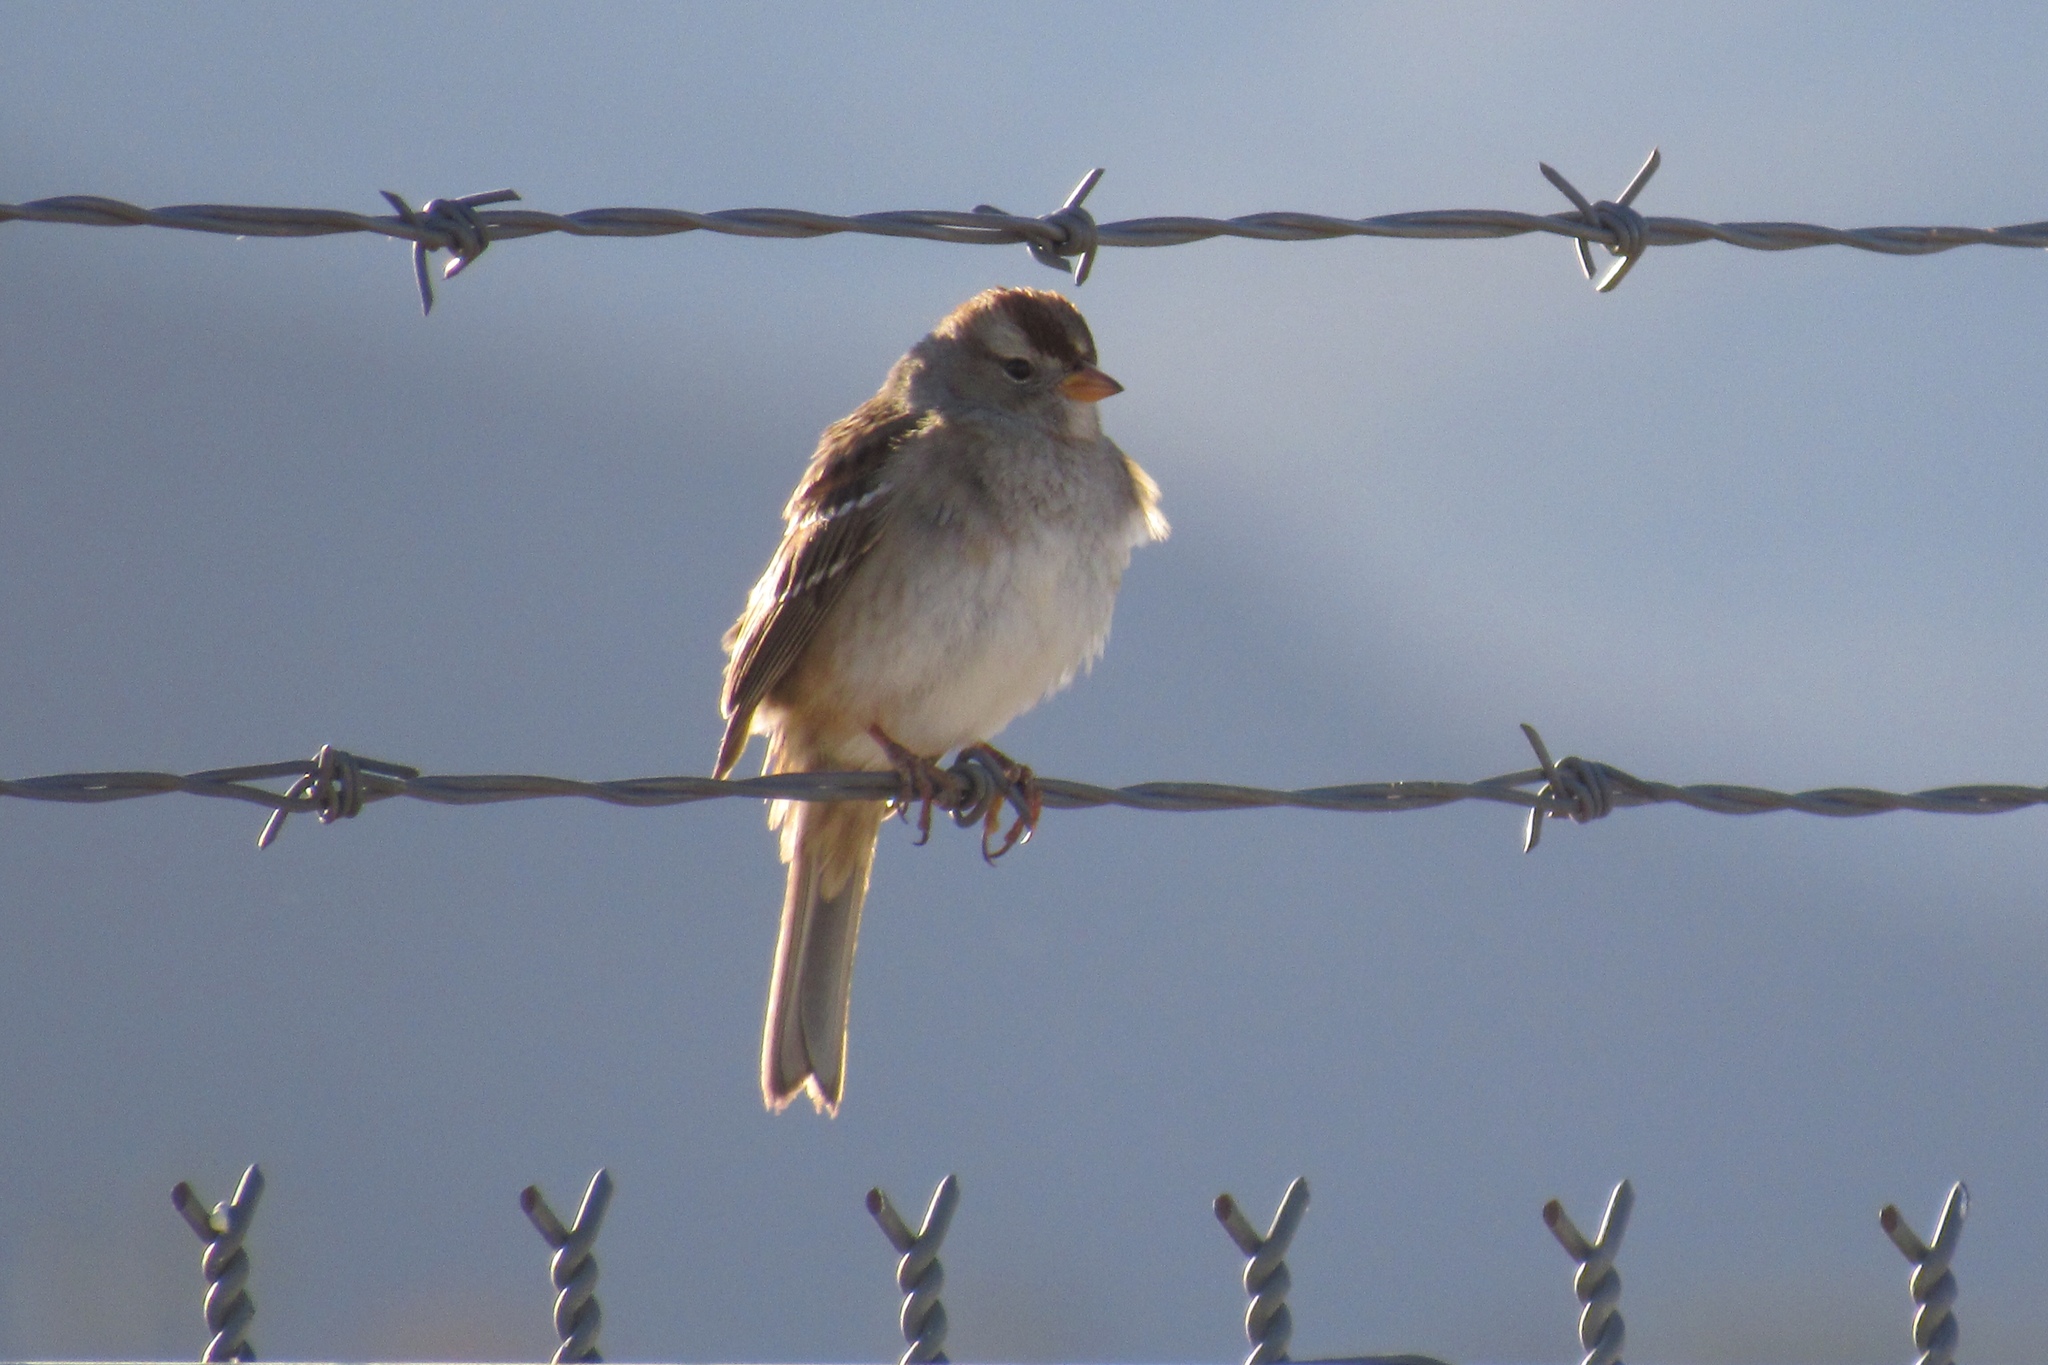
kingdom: Animalia
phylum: Chordata
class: Aves
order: Passeriformes
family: Passerellidae
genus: Zonotrichia
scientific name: Zonotrichia leucophrys
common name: White-crowned sparrow
